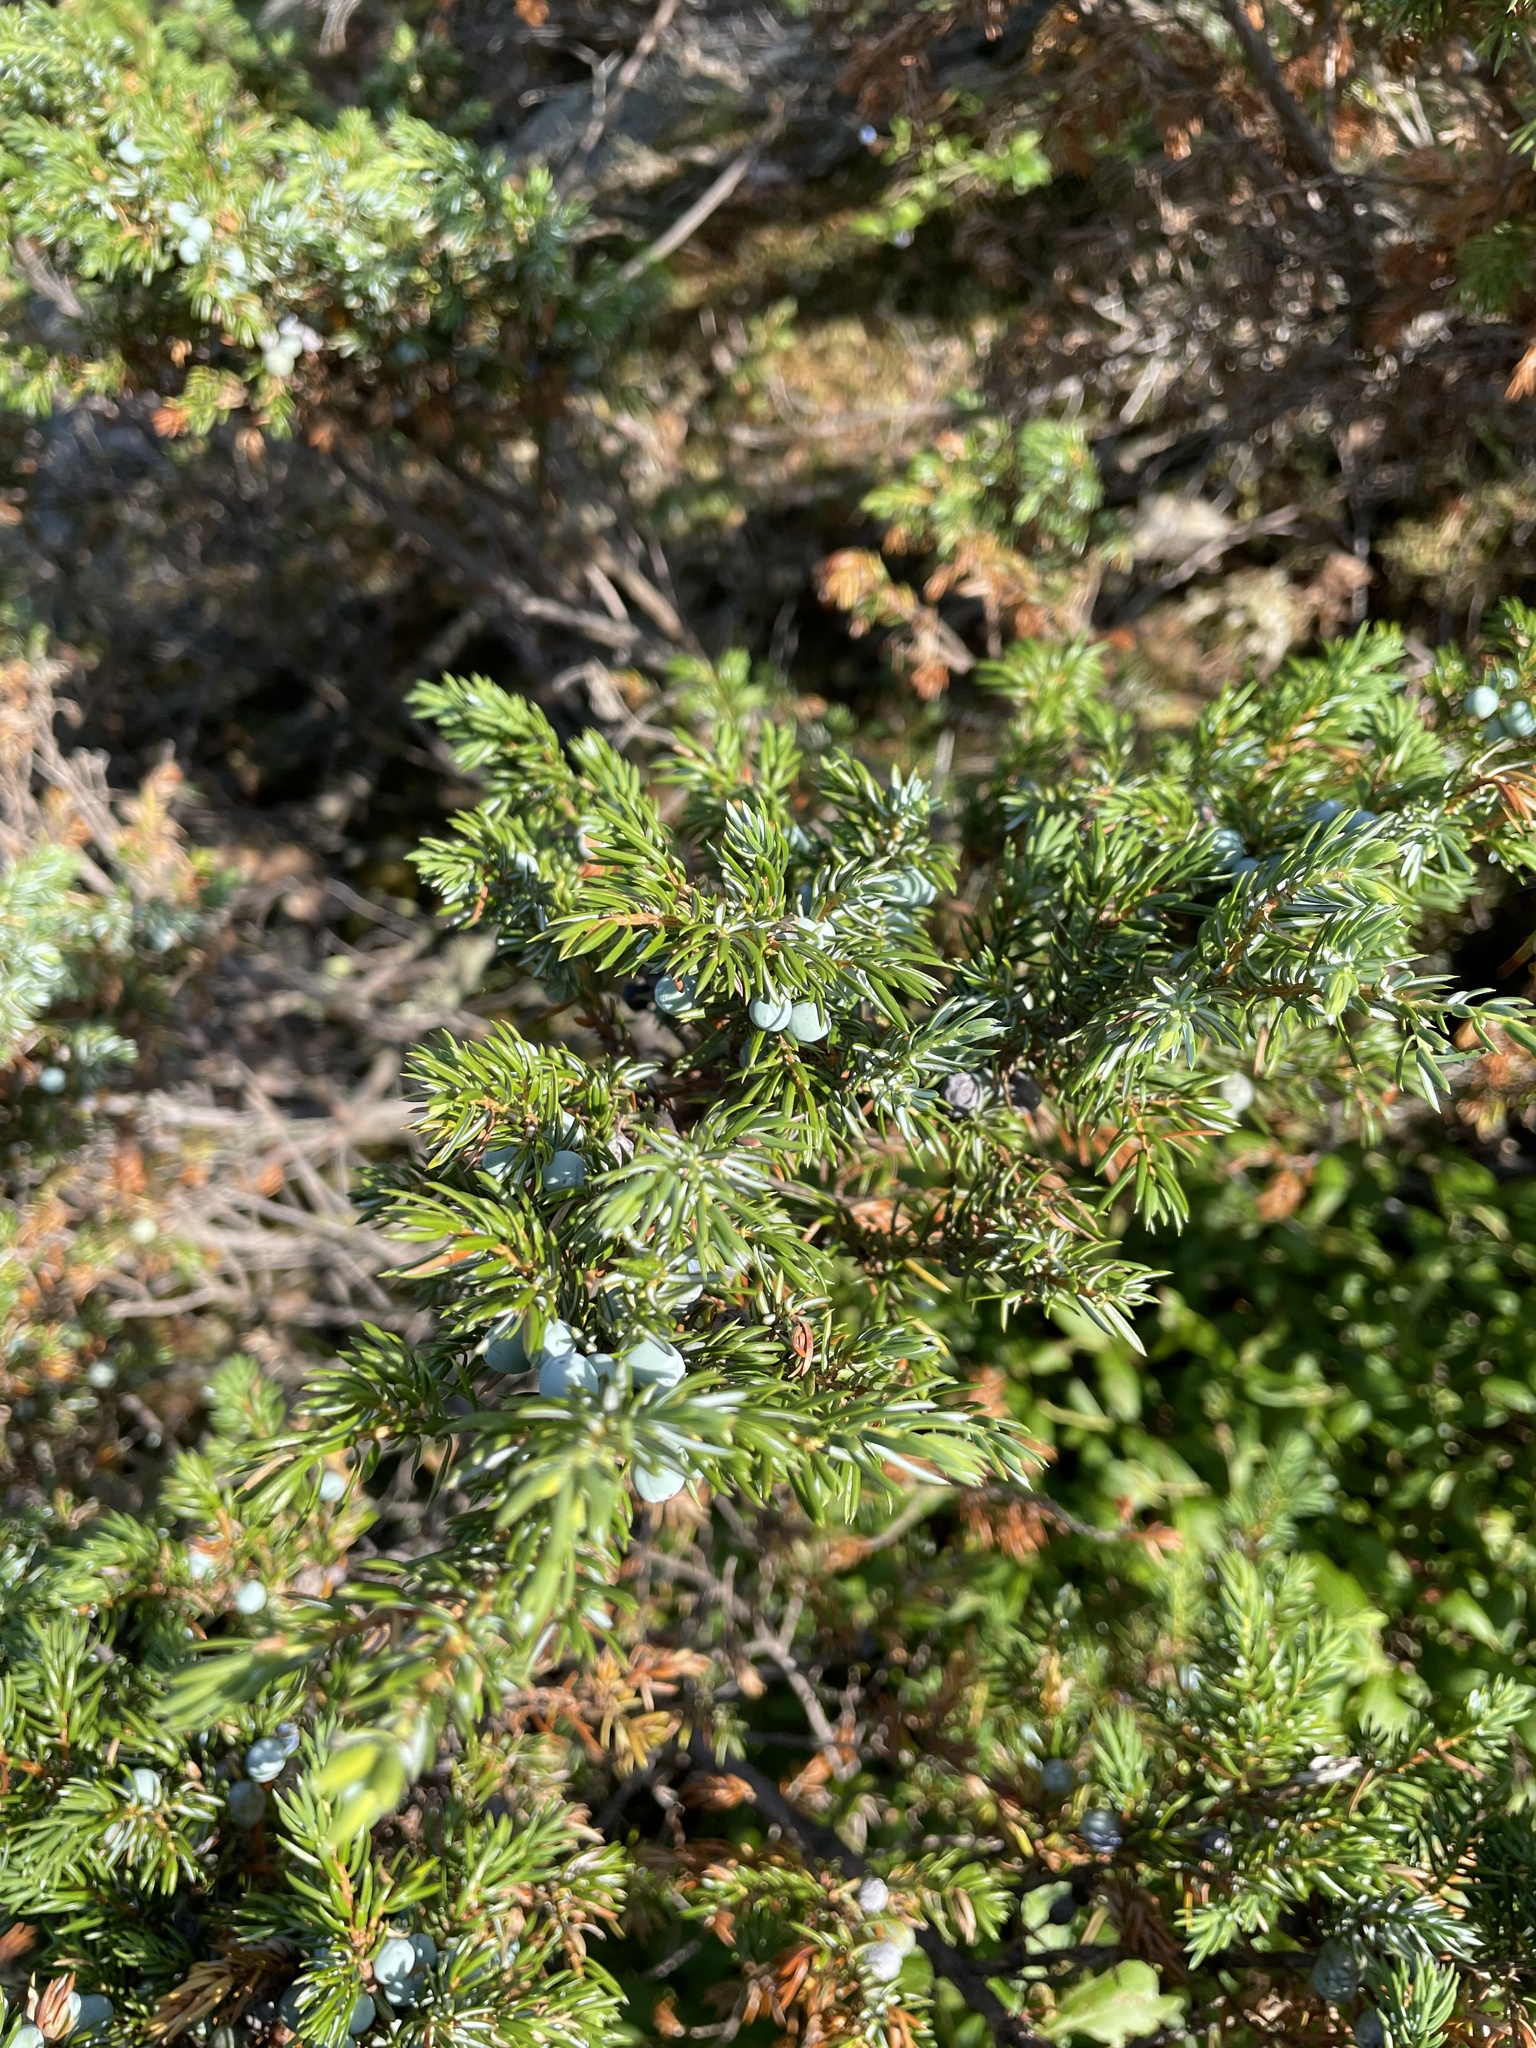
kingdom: Plantae
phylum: Tracheophyta
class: Pinopsida
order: Pinales
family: Cupressaceae
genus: Juniperus
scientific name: Juniperus communis
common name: Common juniper
